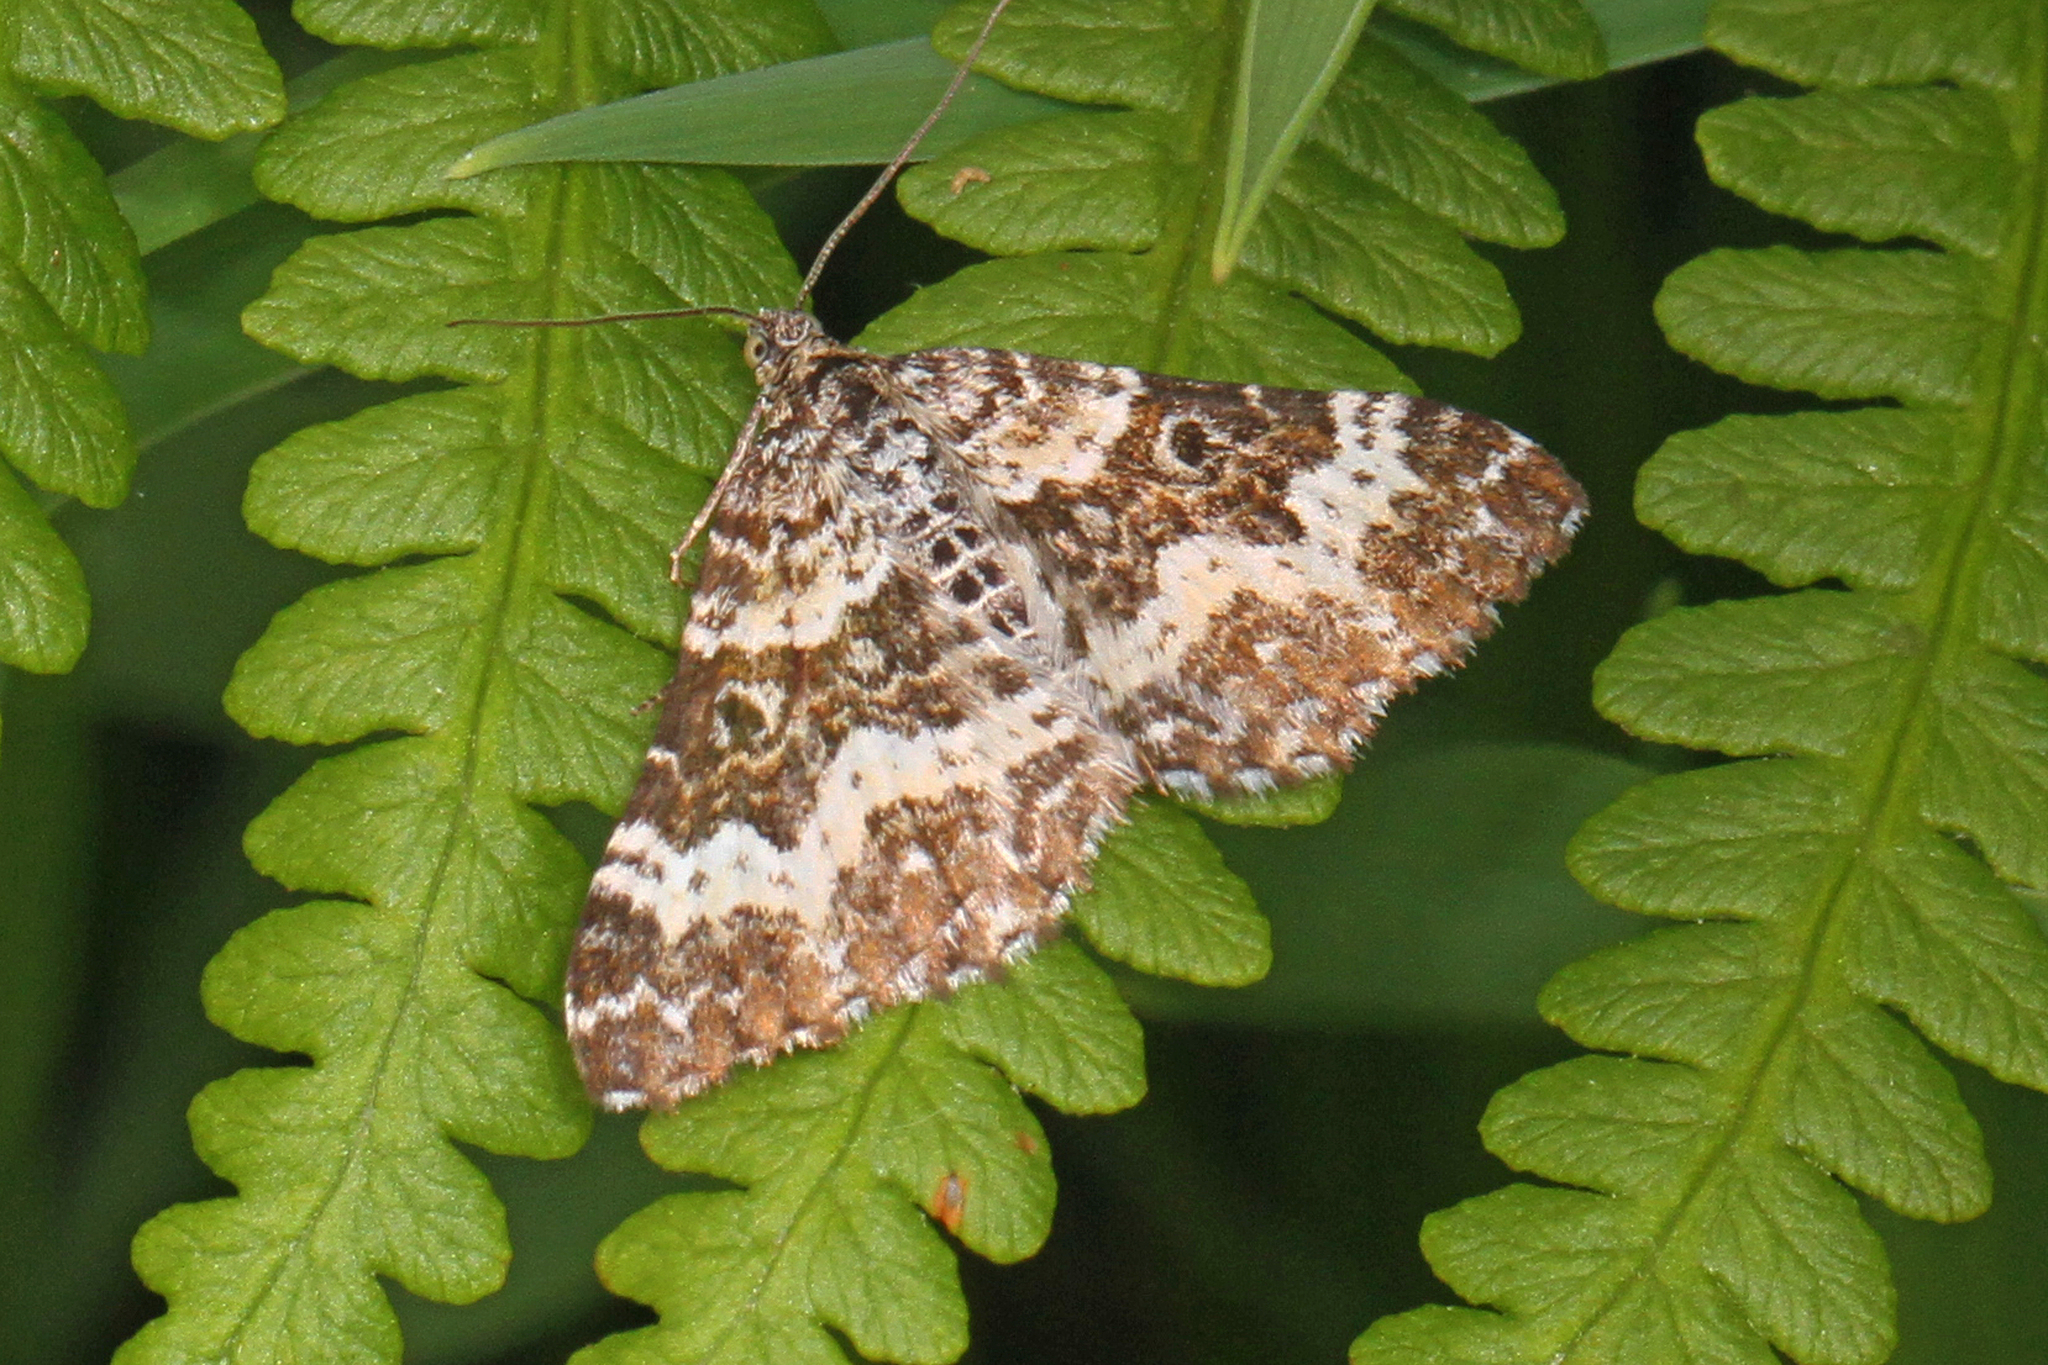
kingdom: Animalia
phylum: Arthropoda
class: Insecta
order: Lepidoptera
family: Geometridae
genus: Epirrhoe
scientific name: Epirrhoe tristata
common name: Small argent & sable
